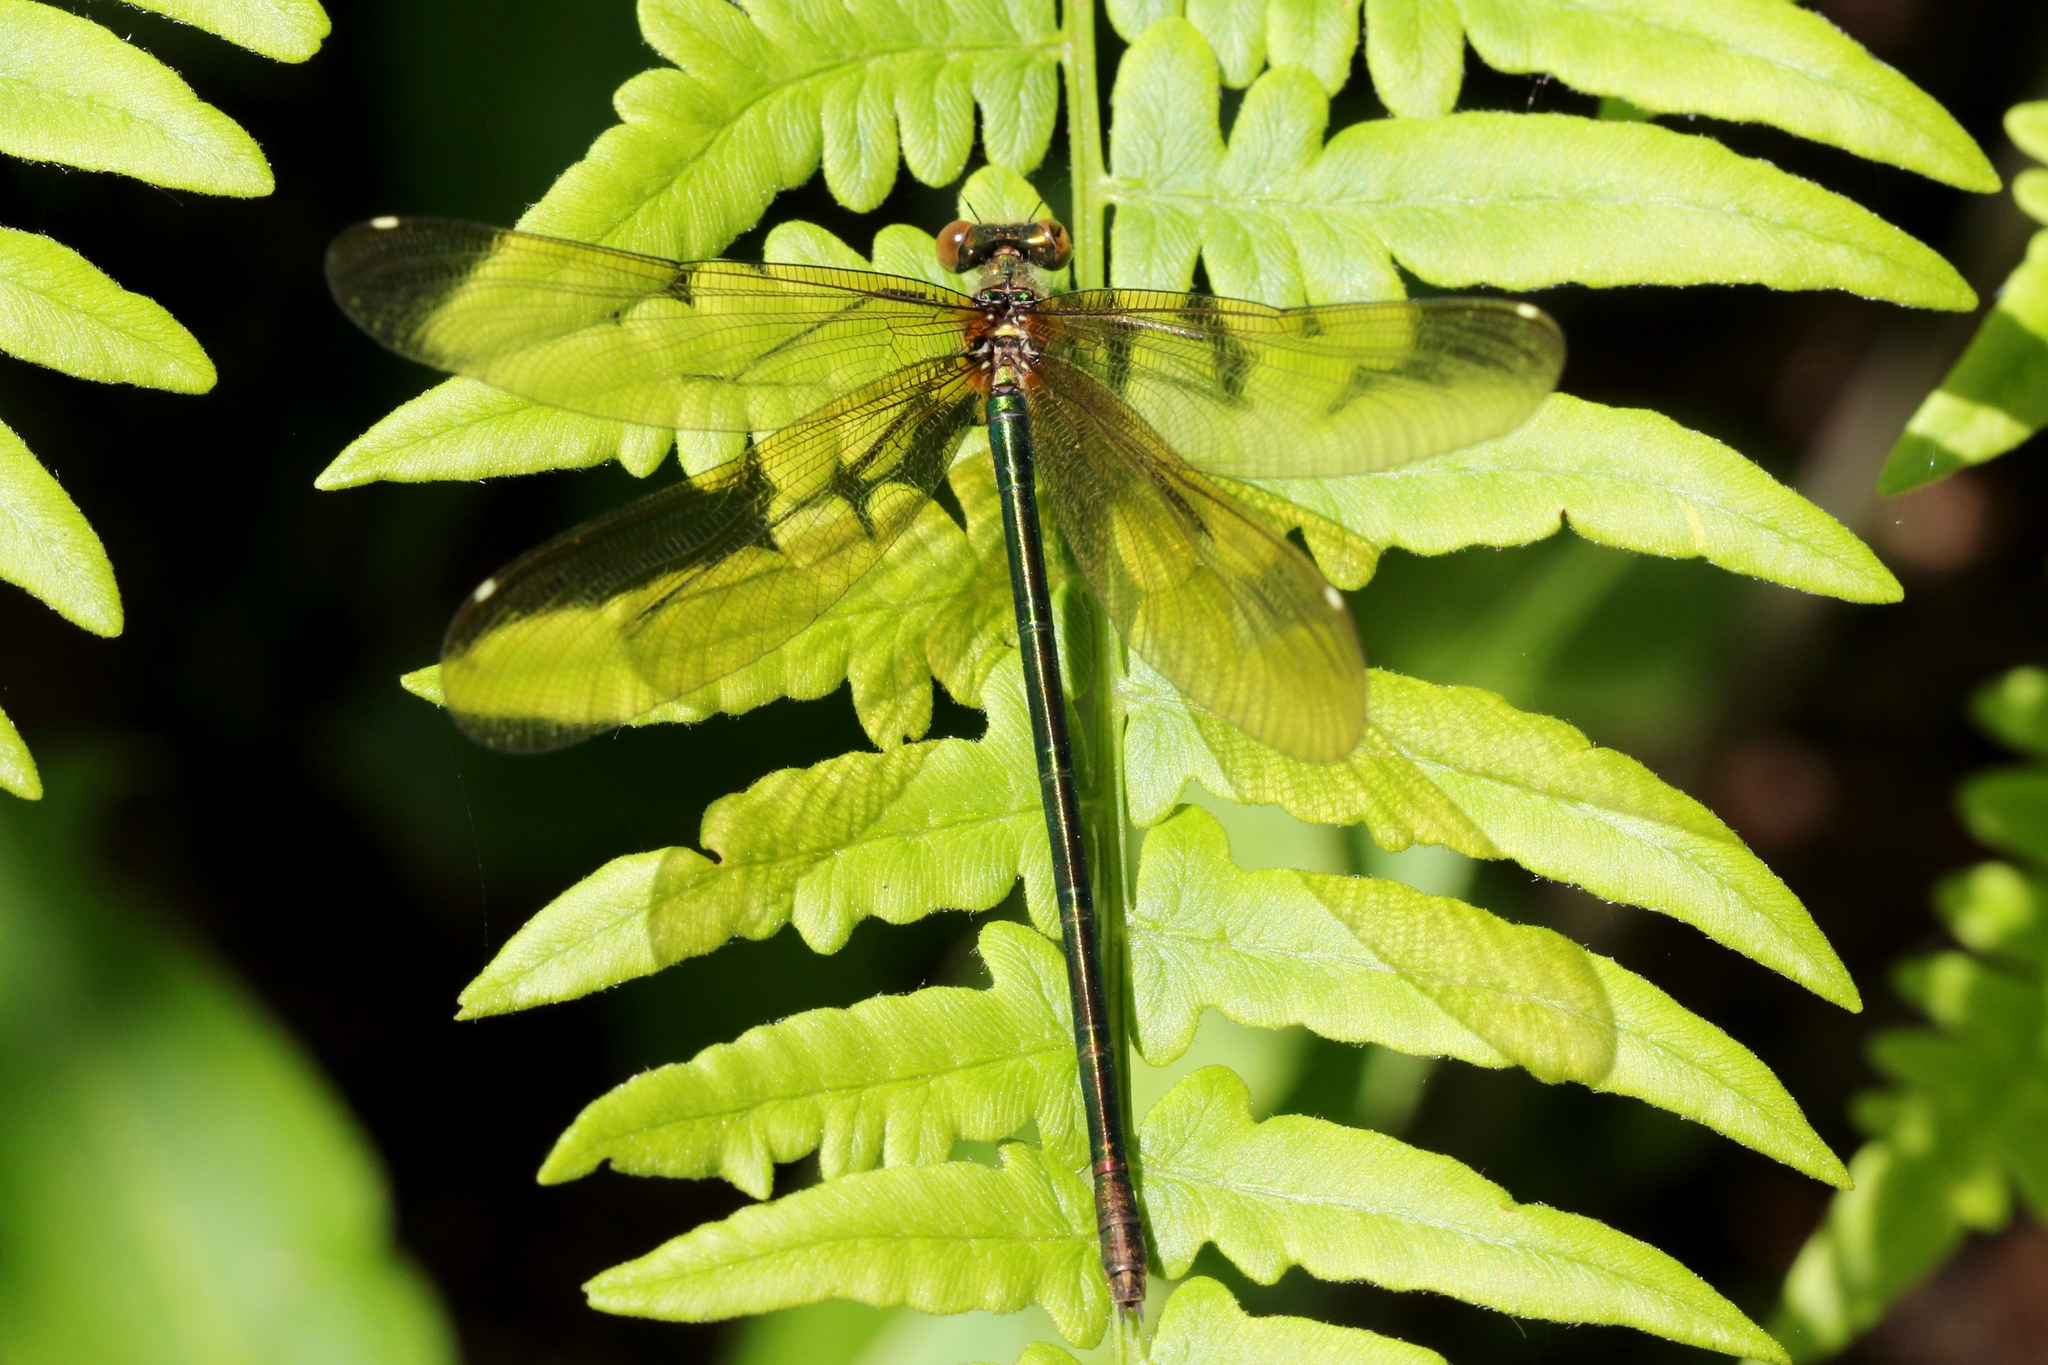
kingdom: Animalia
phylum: Arthropoda
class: Insecta
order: Odonata
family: Calopterygidae
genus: Calopteryx
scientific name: Calopteryx amata
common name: Superb jewelwing
